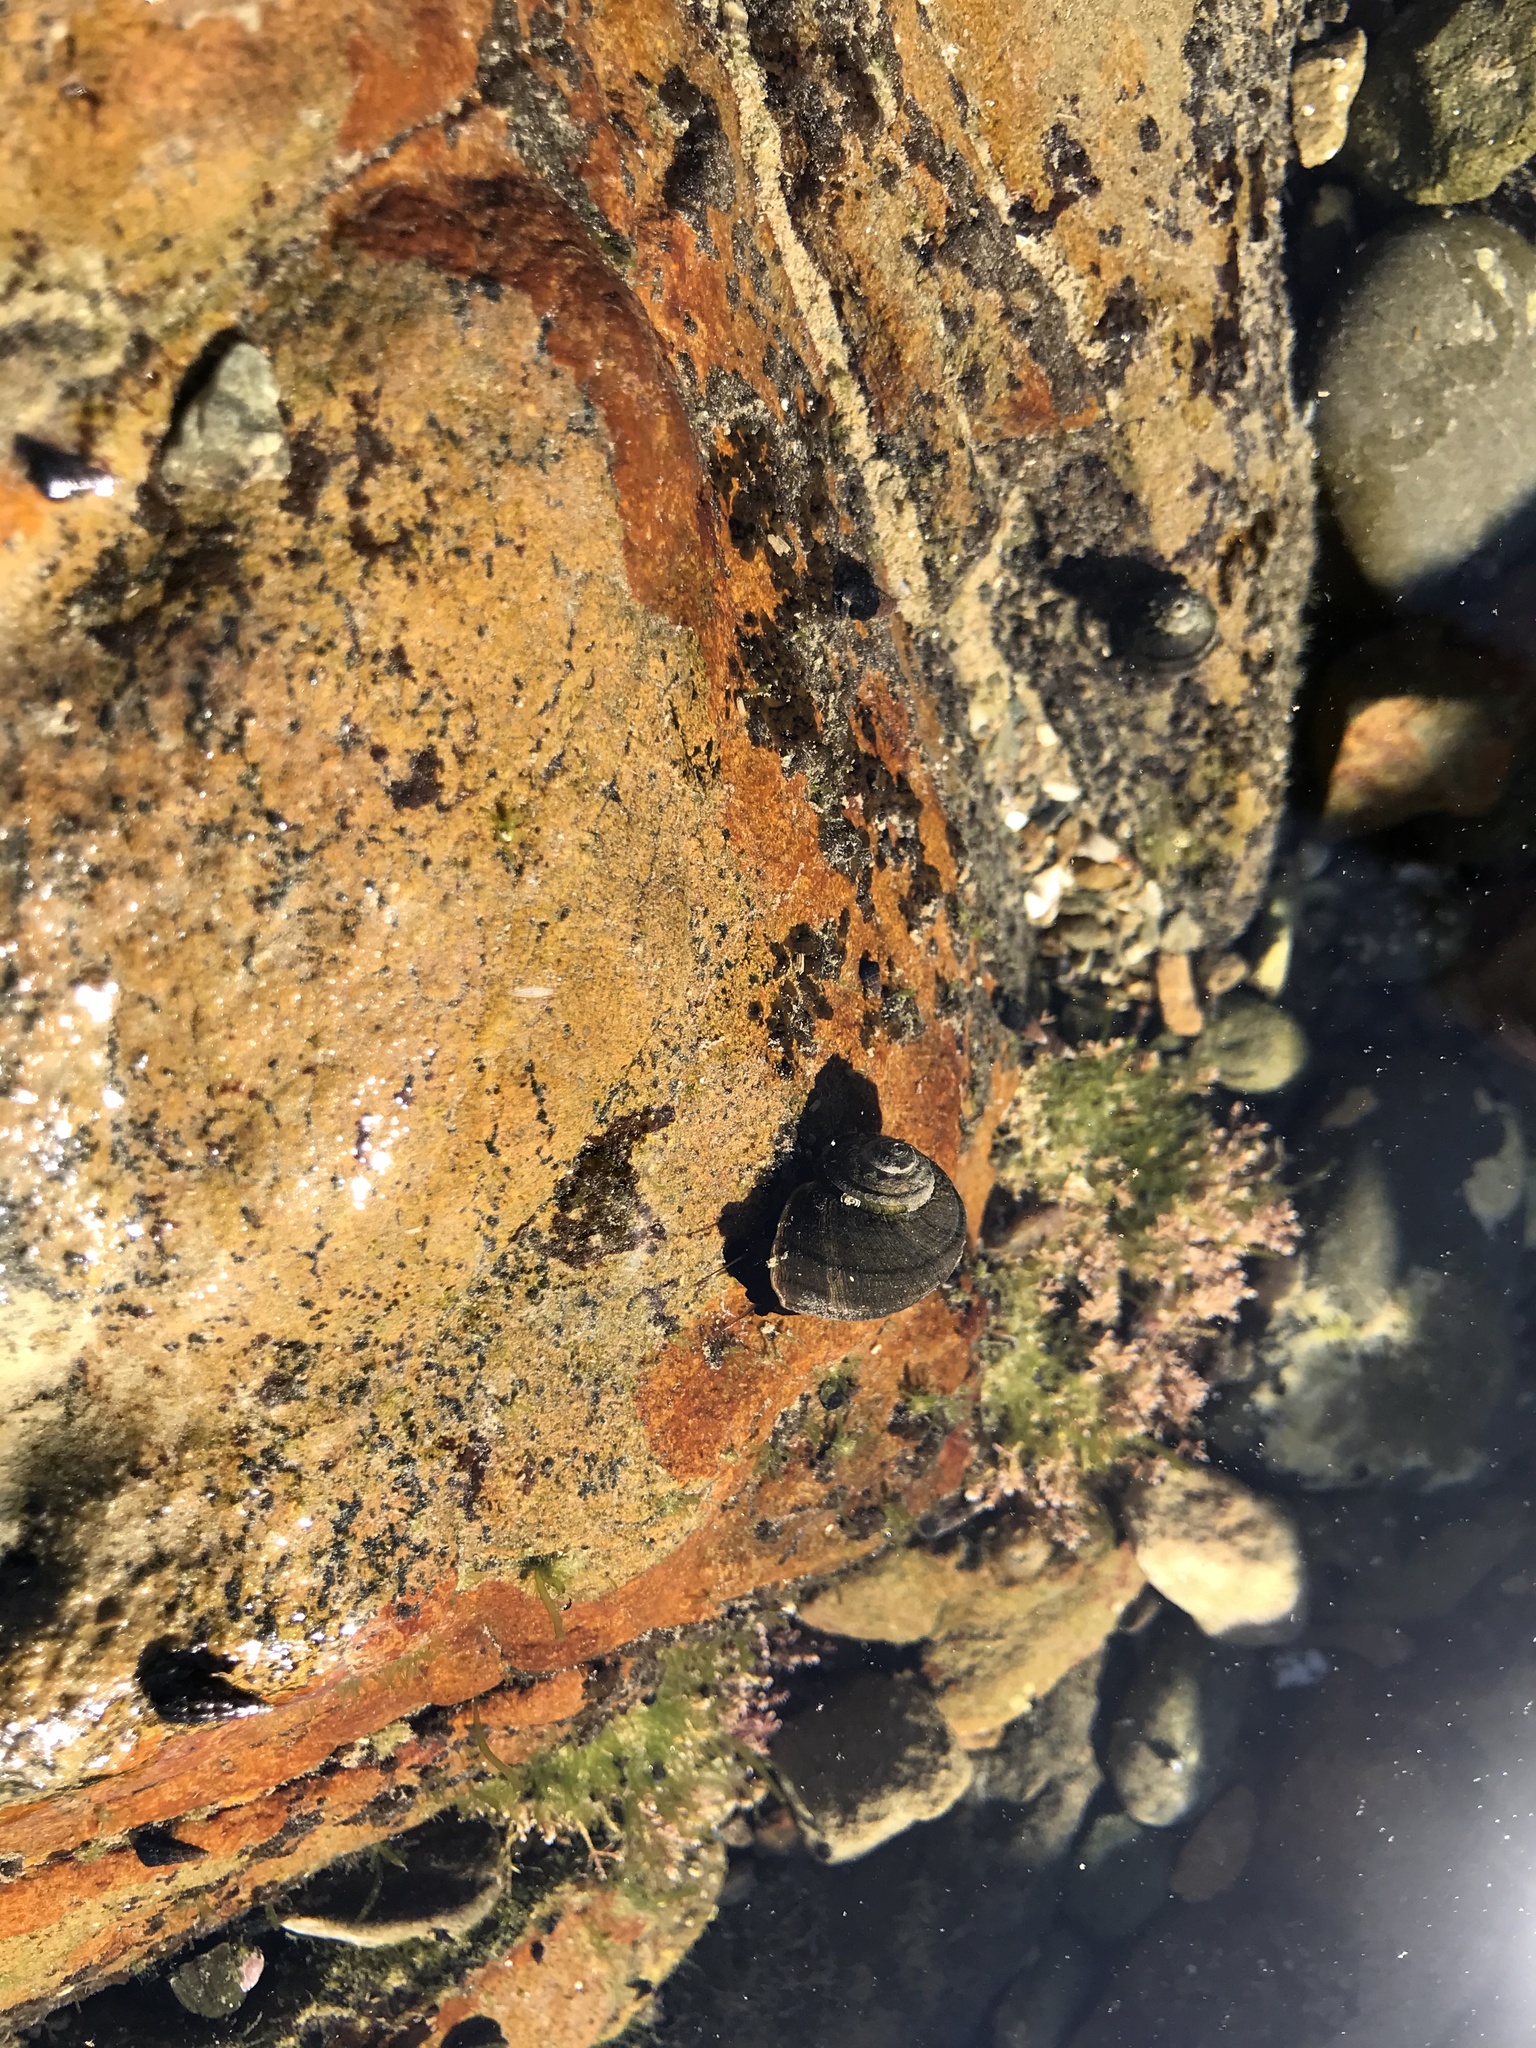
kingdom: Animalia
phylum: Mollusca
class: Gastropoda
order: Trochida
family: Turbinidae
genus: Lunella
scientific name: Lunella smaragda
